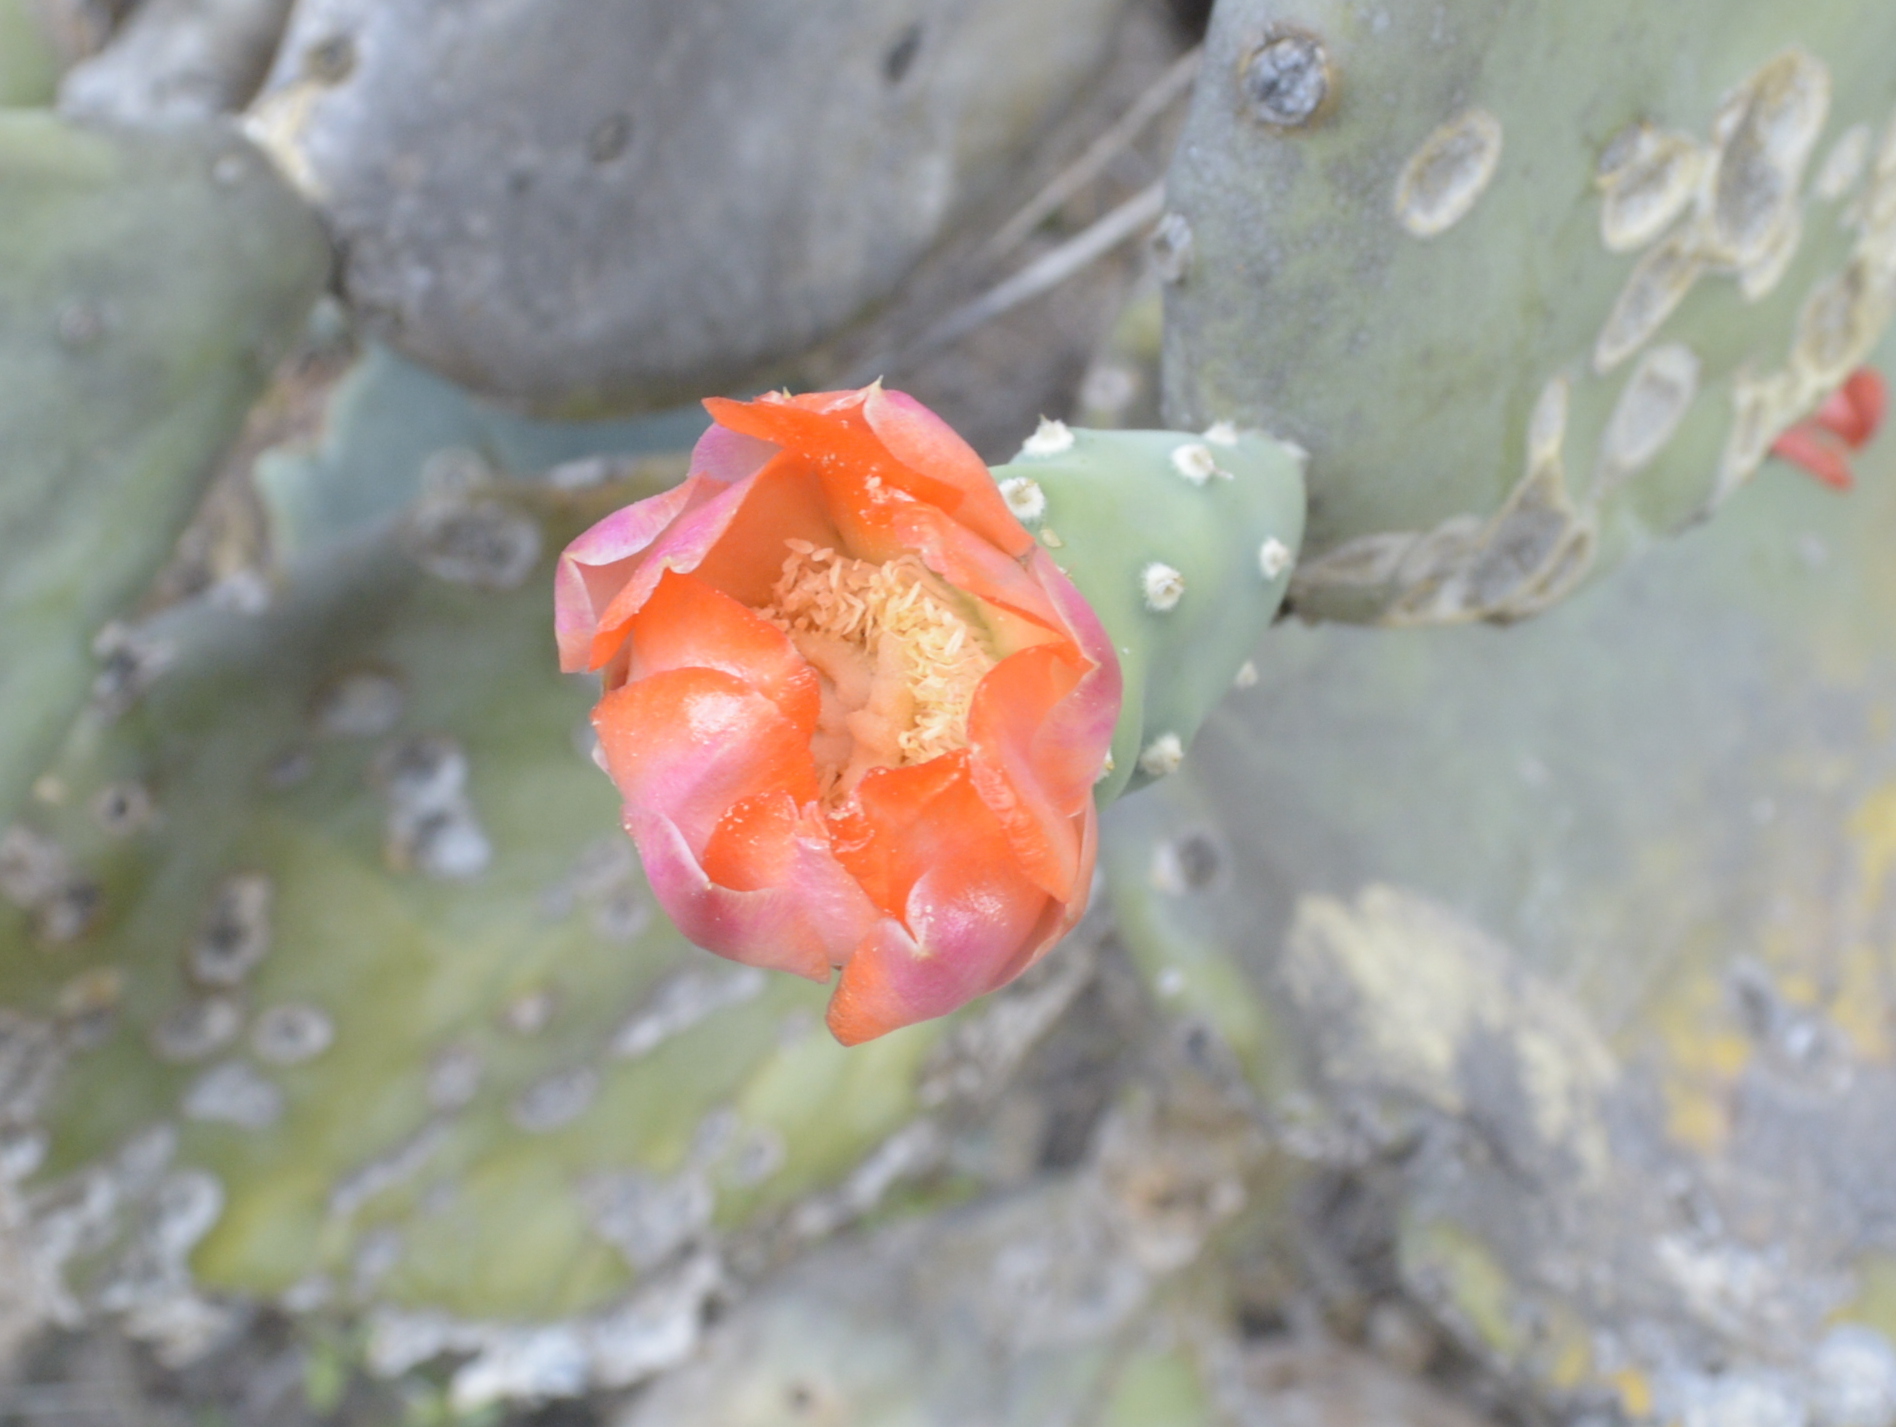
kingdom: Plantae
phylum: Tracheophyta
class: Magnoliopsida
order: Caryophyllales
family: Cactaceae
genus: Opuntia
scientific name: Opuntia quimilo
